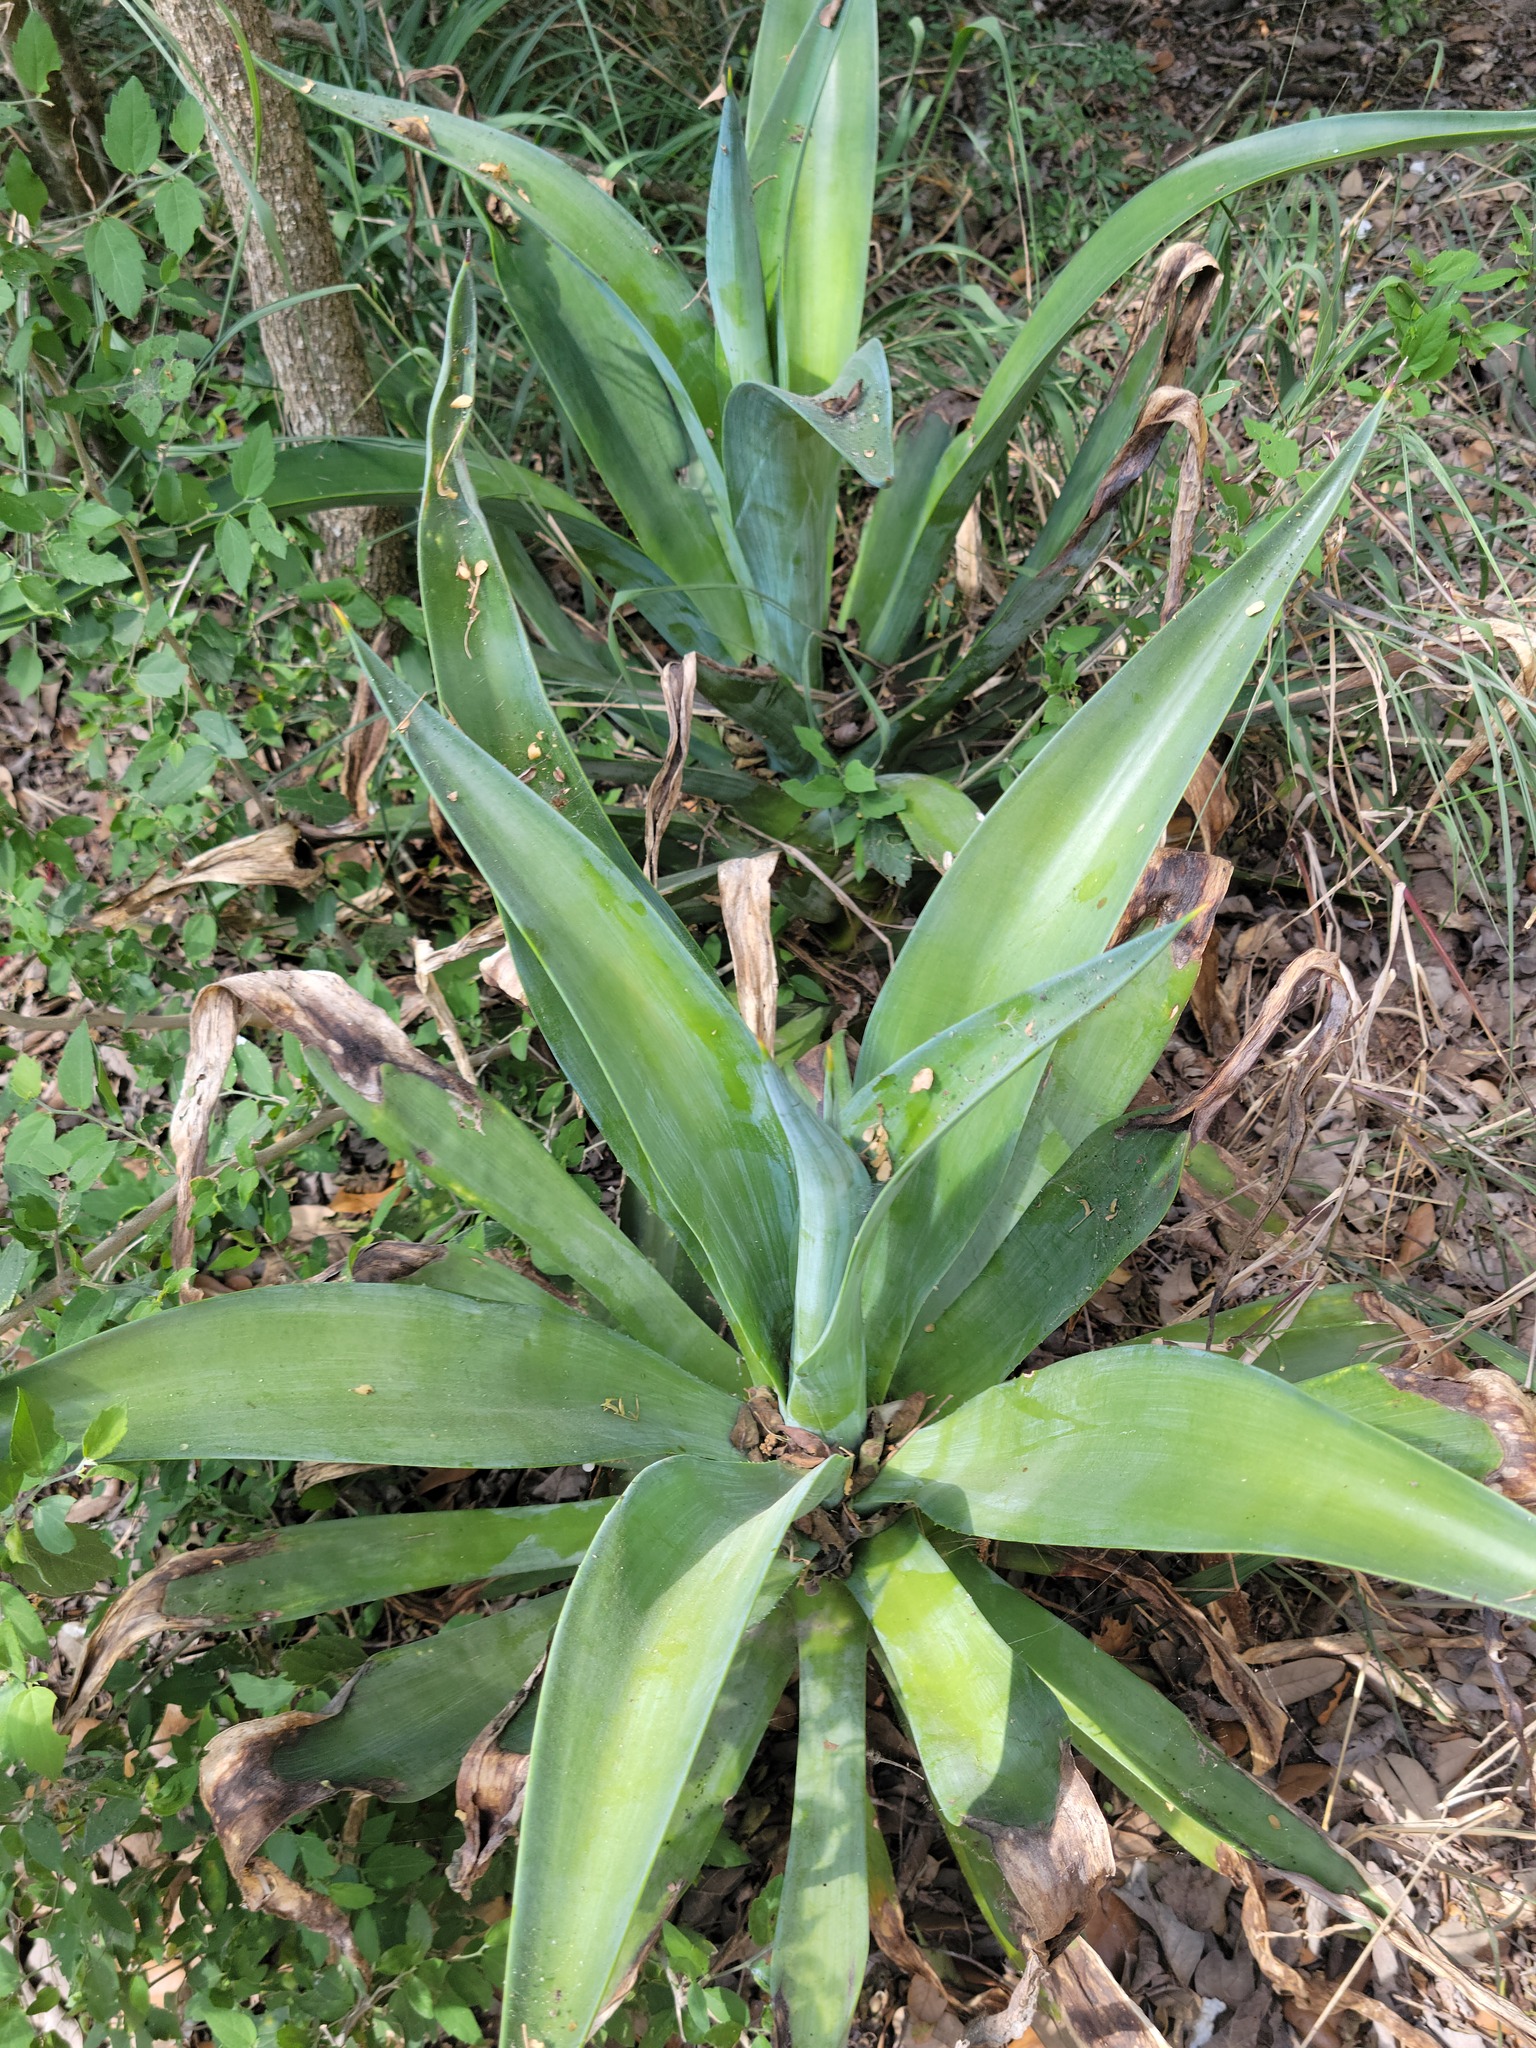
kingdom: Plantae
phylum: Tracheophyta
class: Liliopsida
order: Asparagales
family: Asparagaceae
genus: Agave
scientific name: Agave
